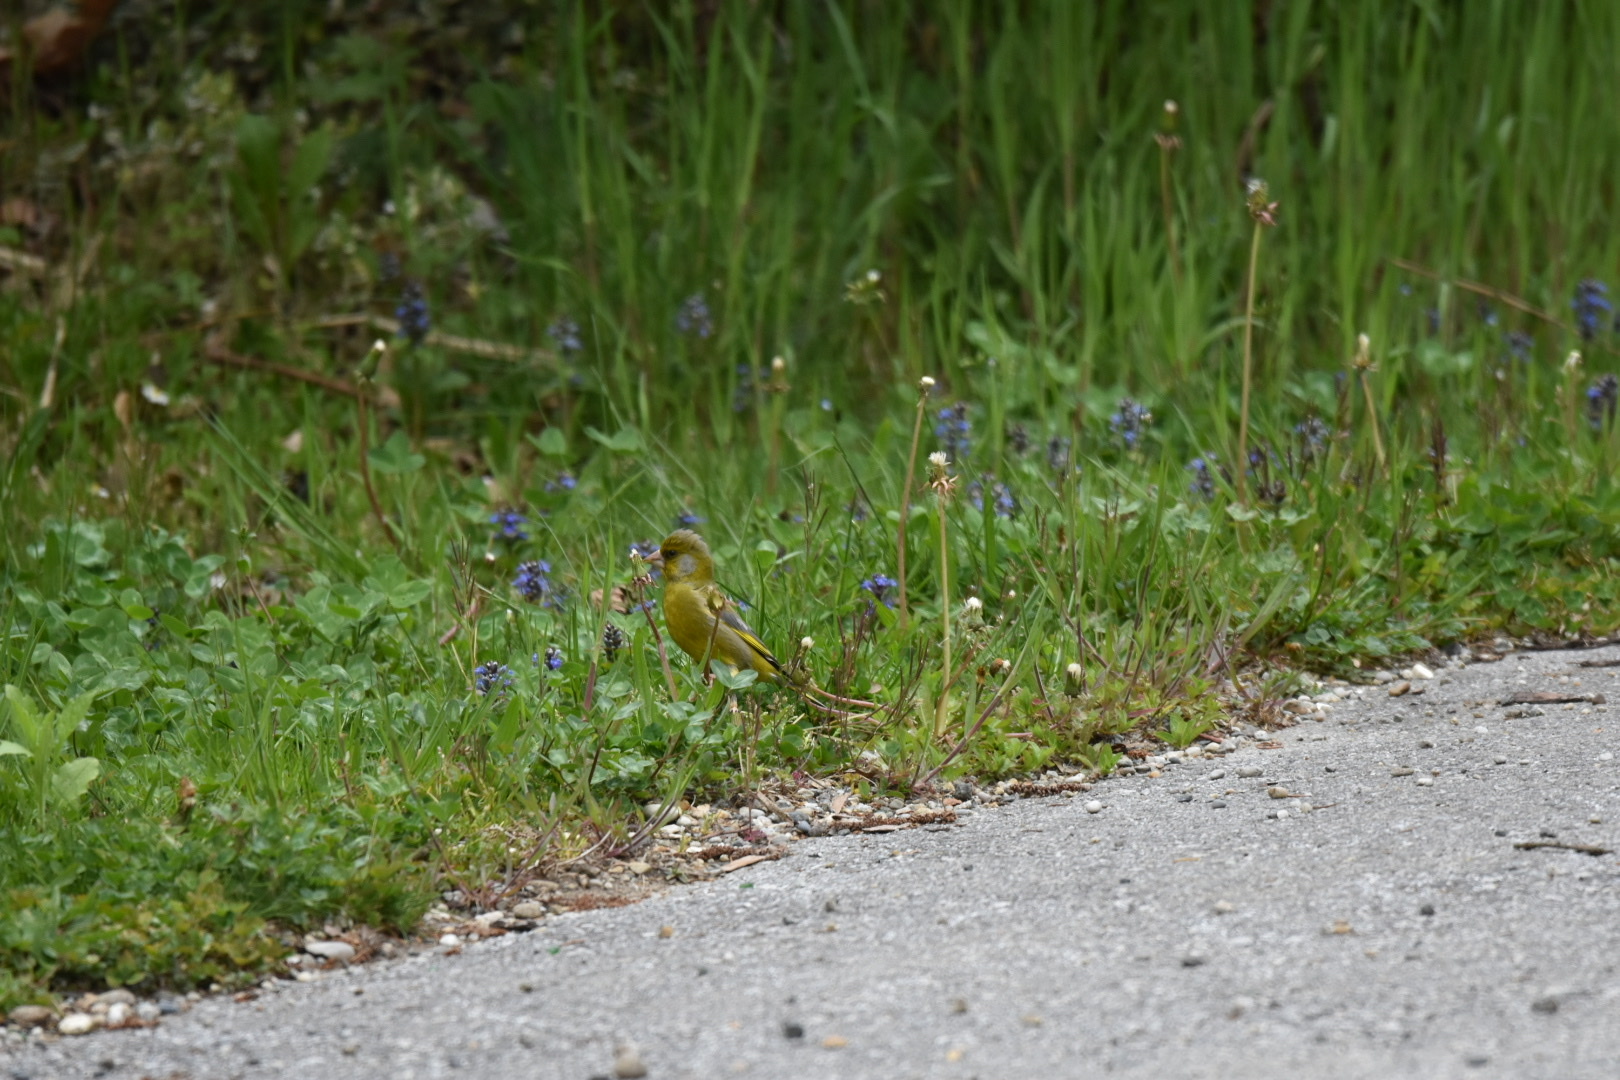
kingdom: Plantae
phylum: Tracheophyta
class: Liliopsida
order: Poales
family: Poaceae
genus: Chloris
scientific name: Chloris chloris
